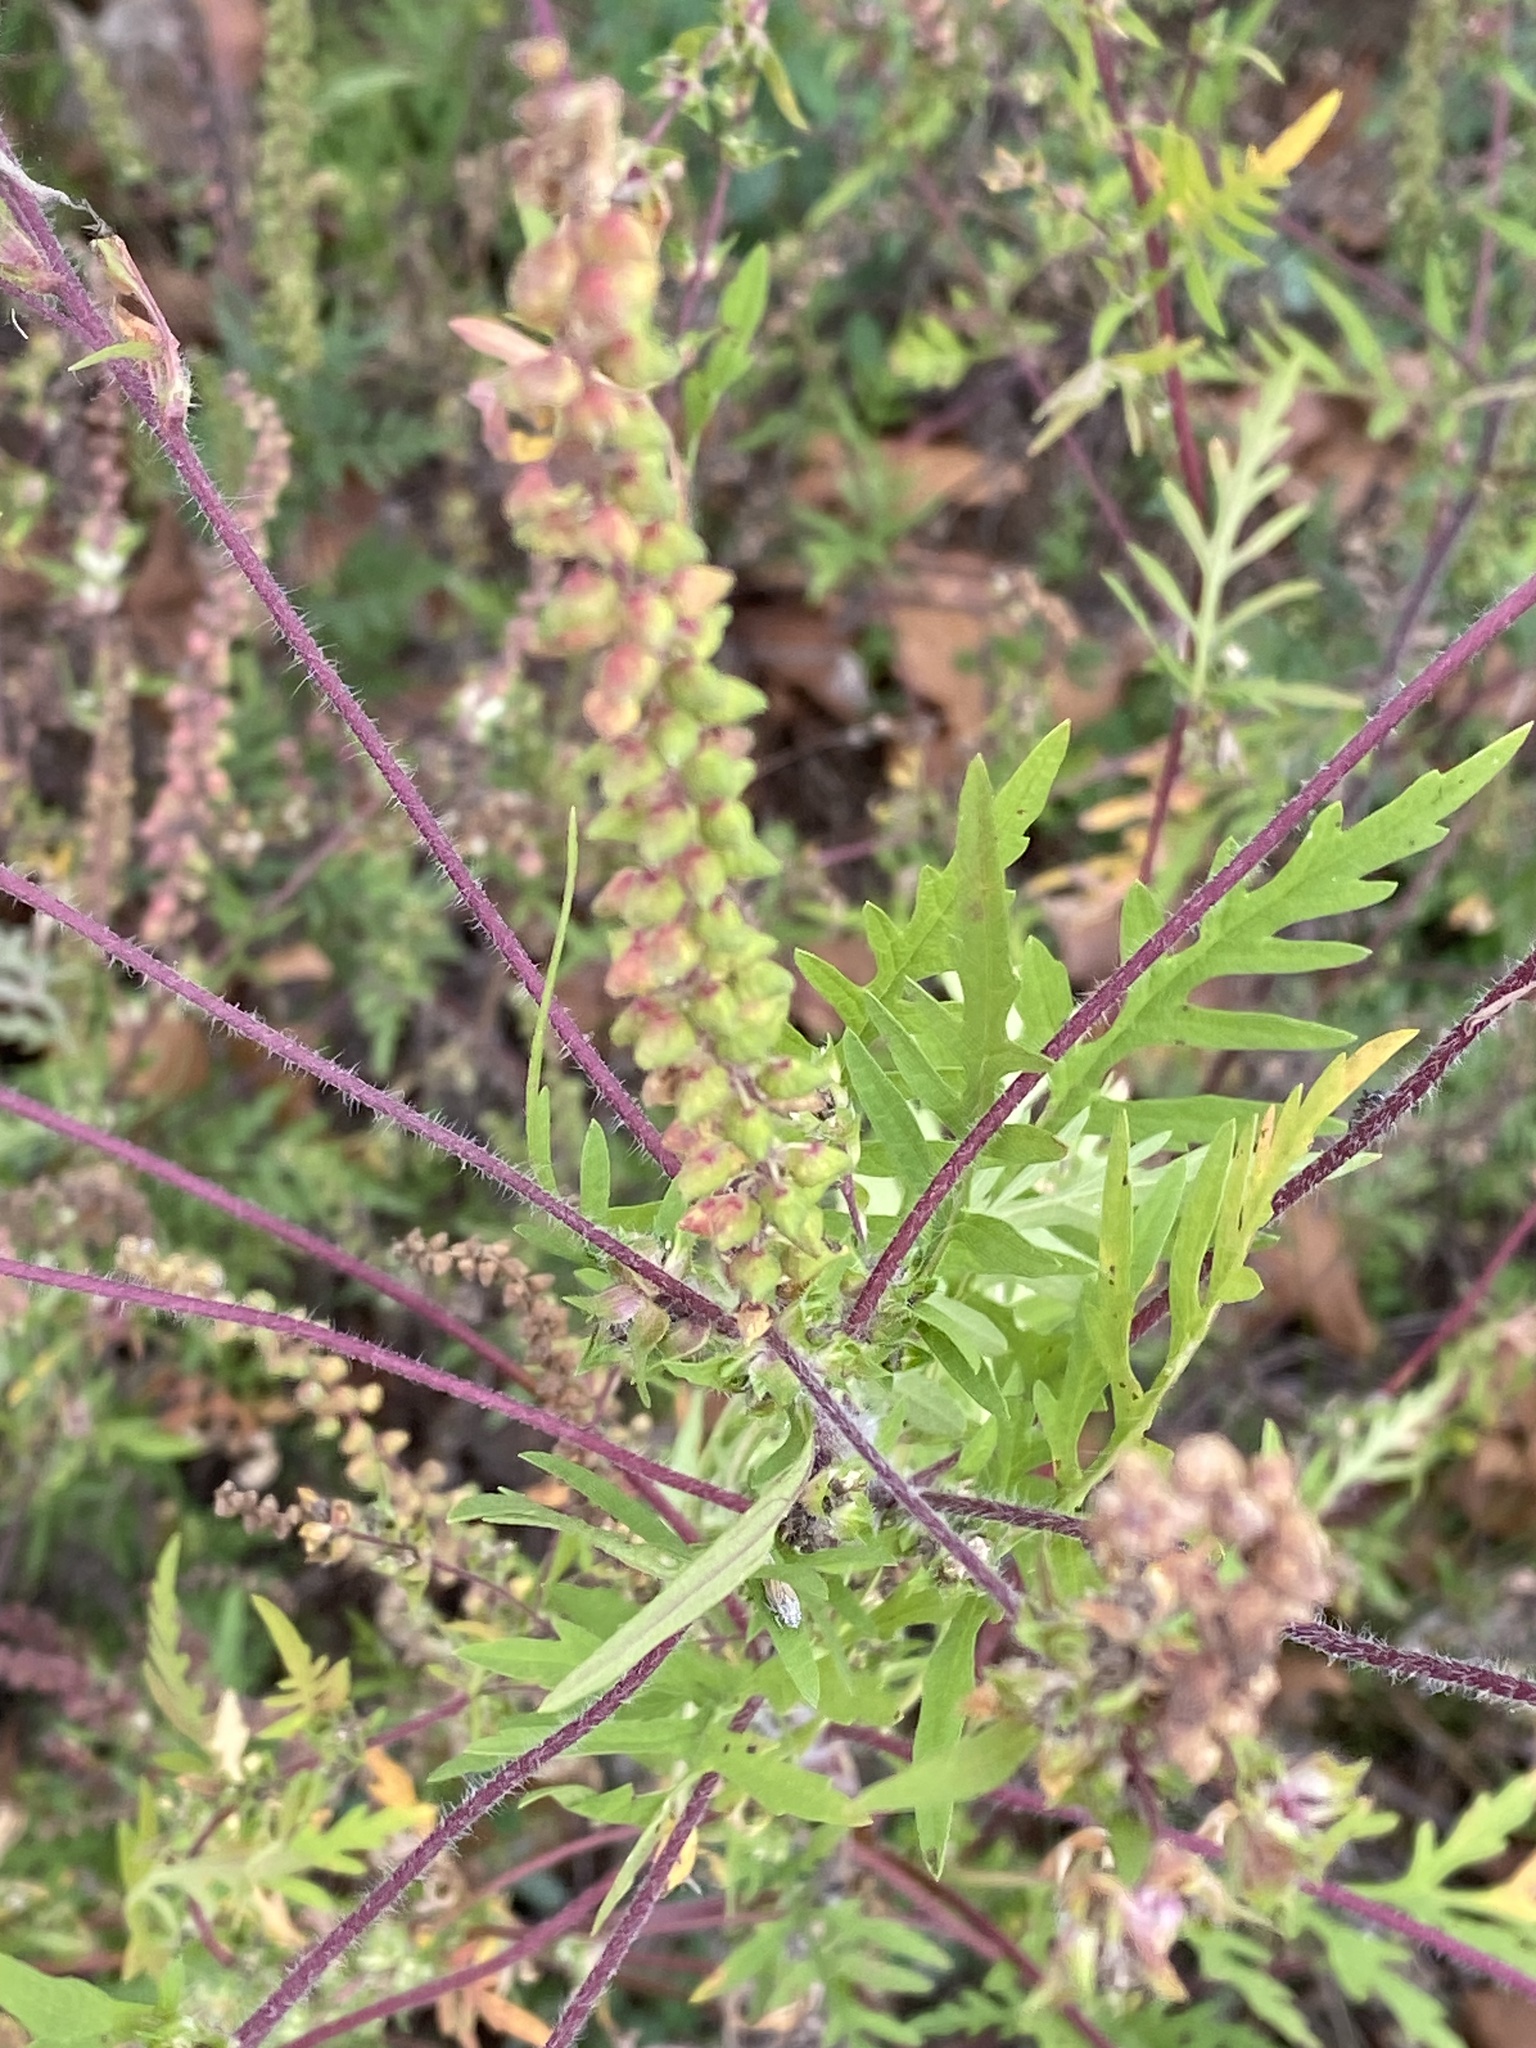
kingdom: Plantae
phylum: Tracheophyta
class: Magnoliopsida
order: Asterales
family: Asteraceae
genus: Ambrosia
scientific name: Ambrosia artemisiifolia
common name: Annual ragweed
